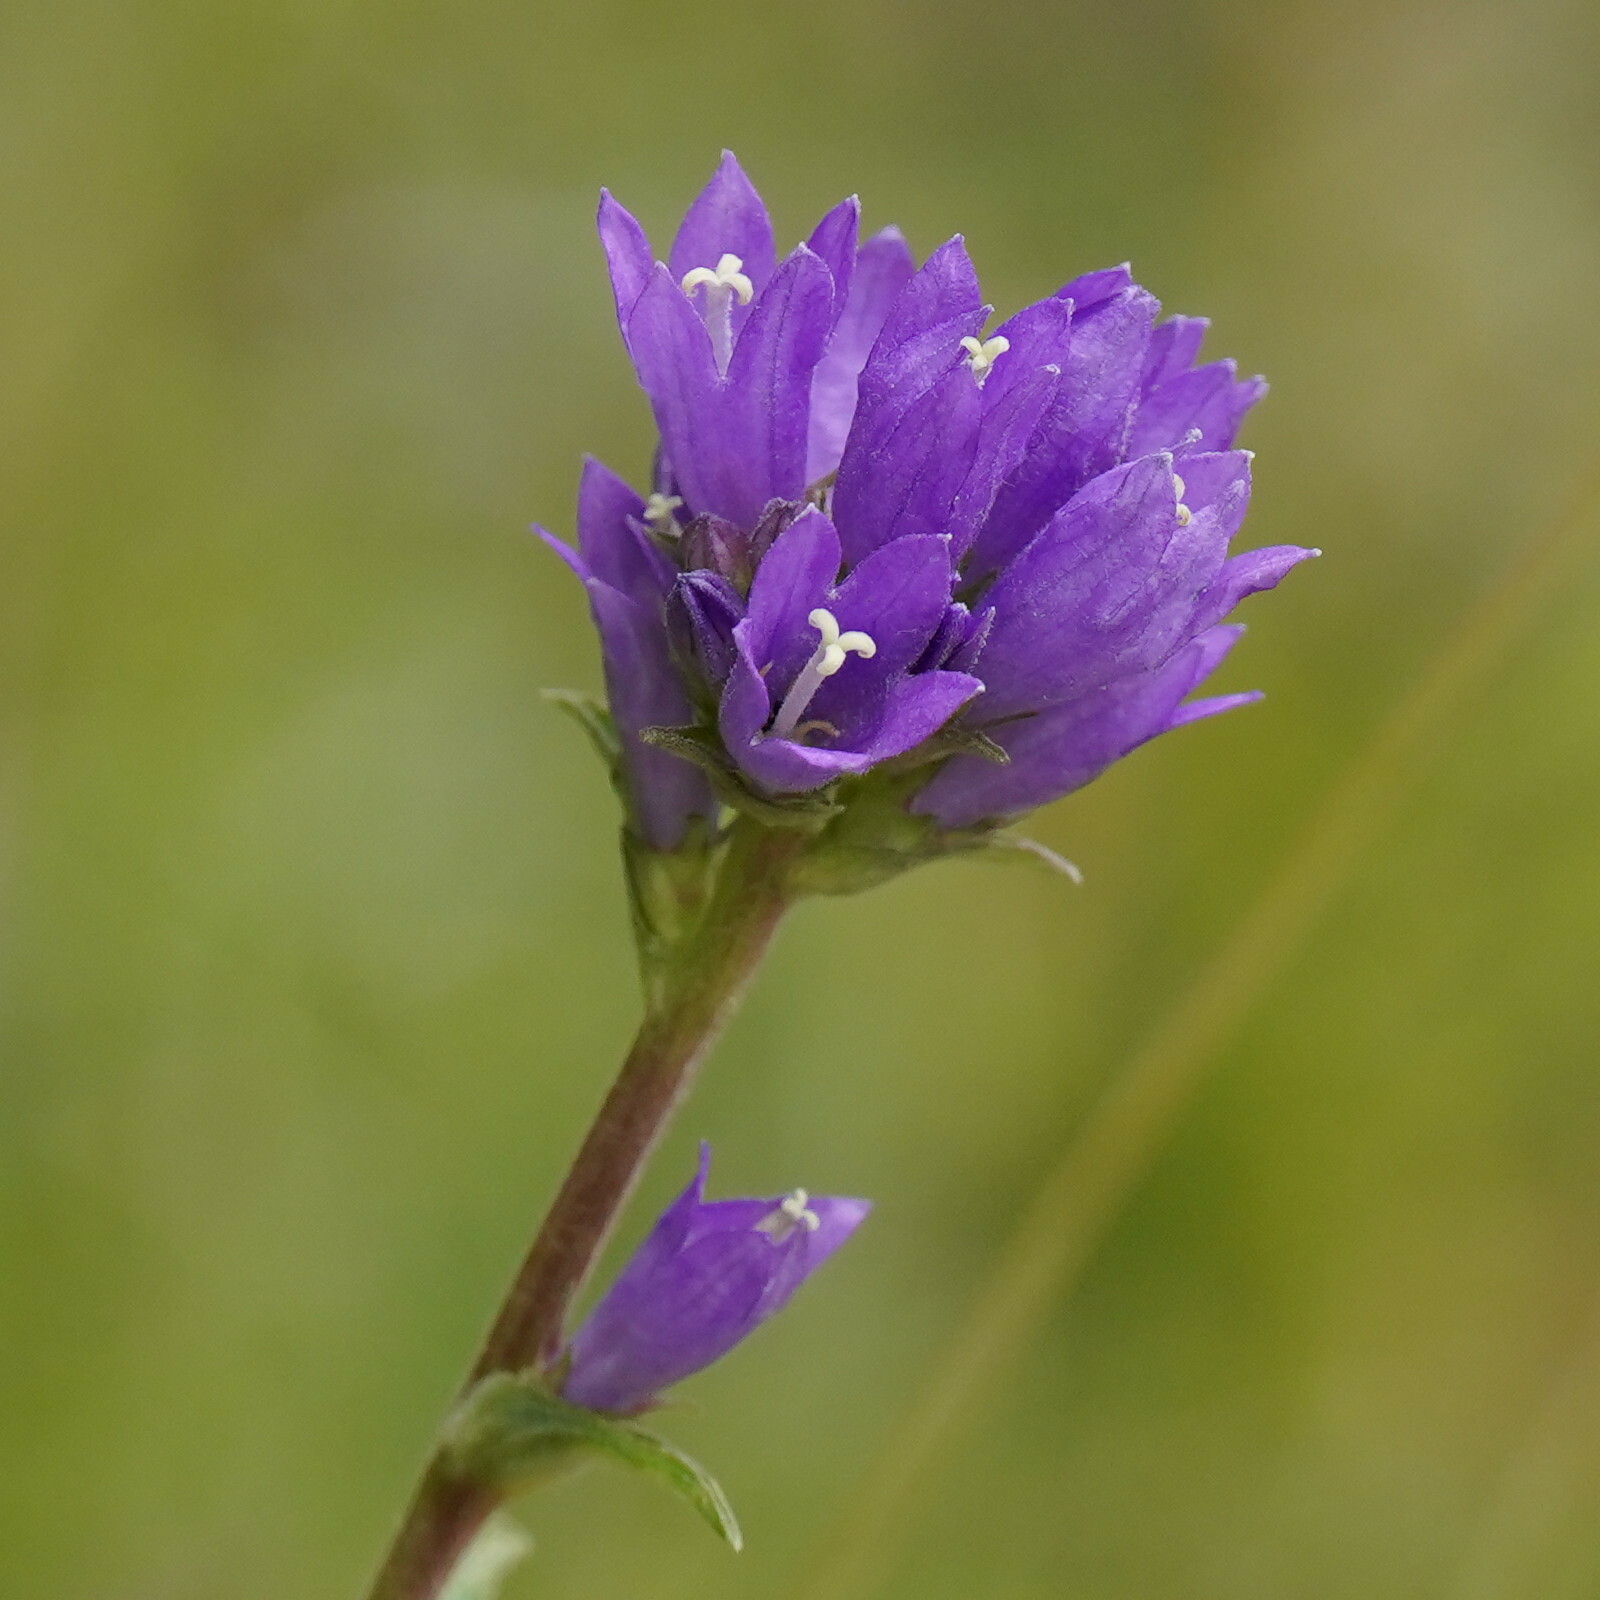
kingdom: Plantae
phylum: Tracheophyta
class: Magnoliopsida
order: Asterales
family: Campanulaceae
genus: Campanula
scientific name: Campanula glomerata
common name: Clustered bellflower
